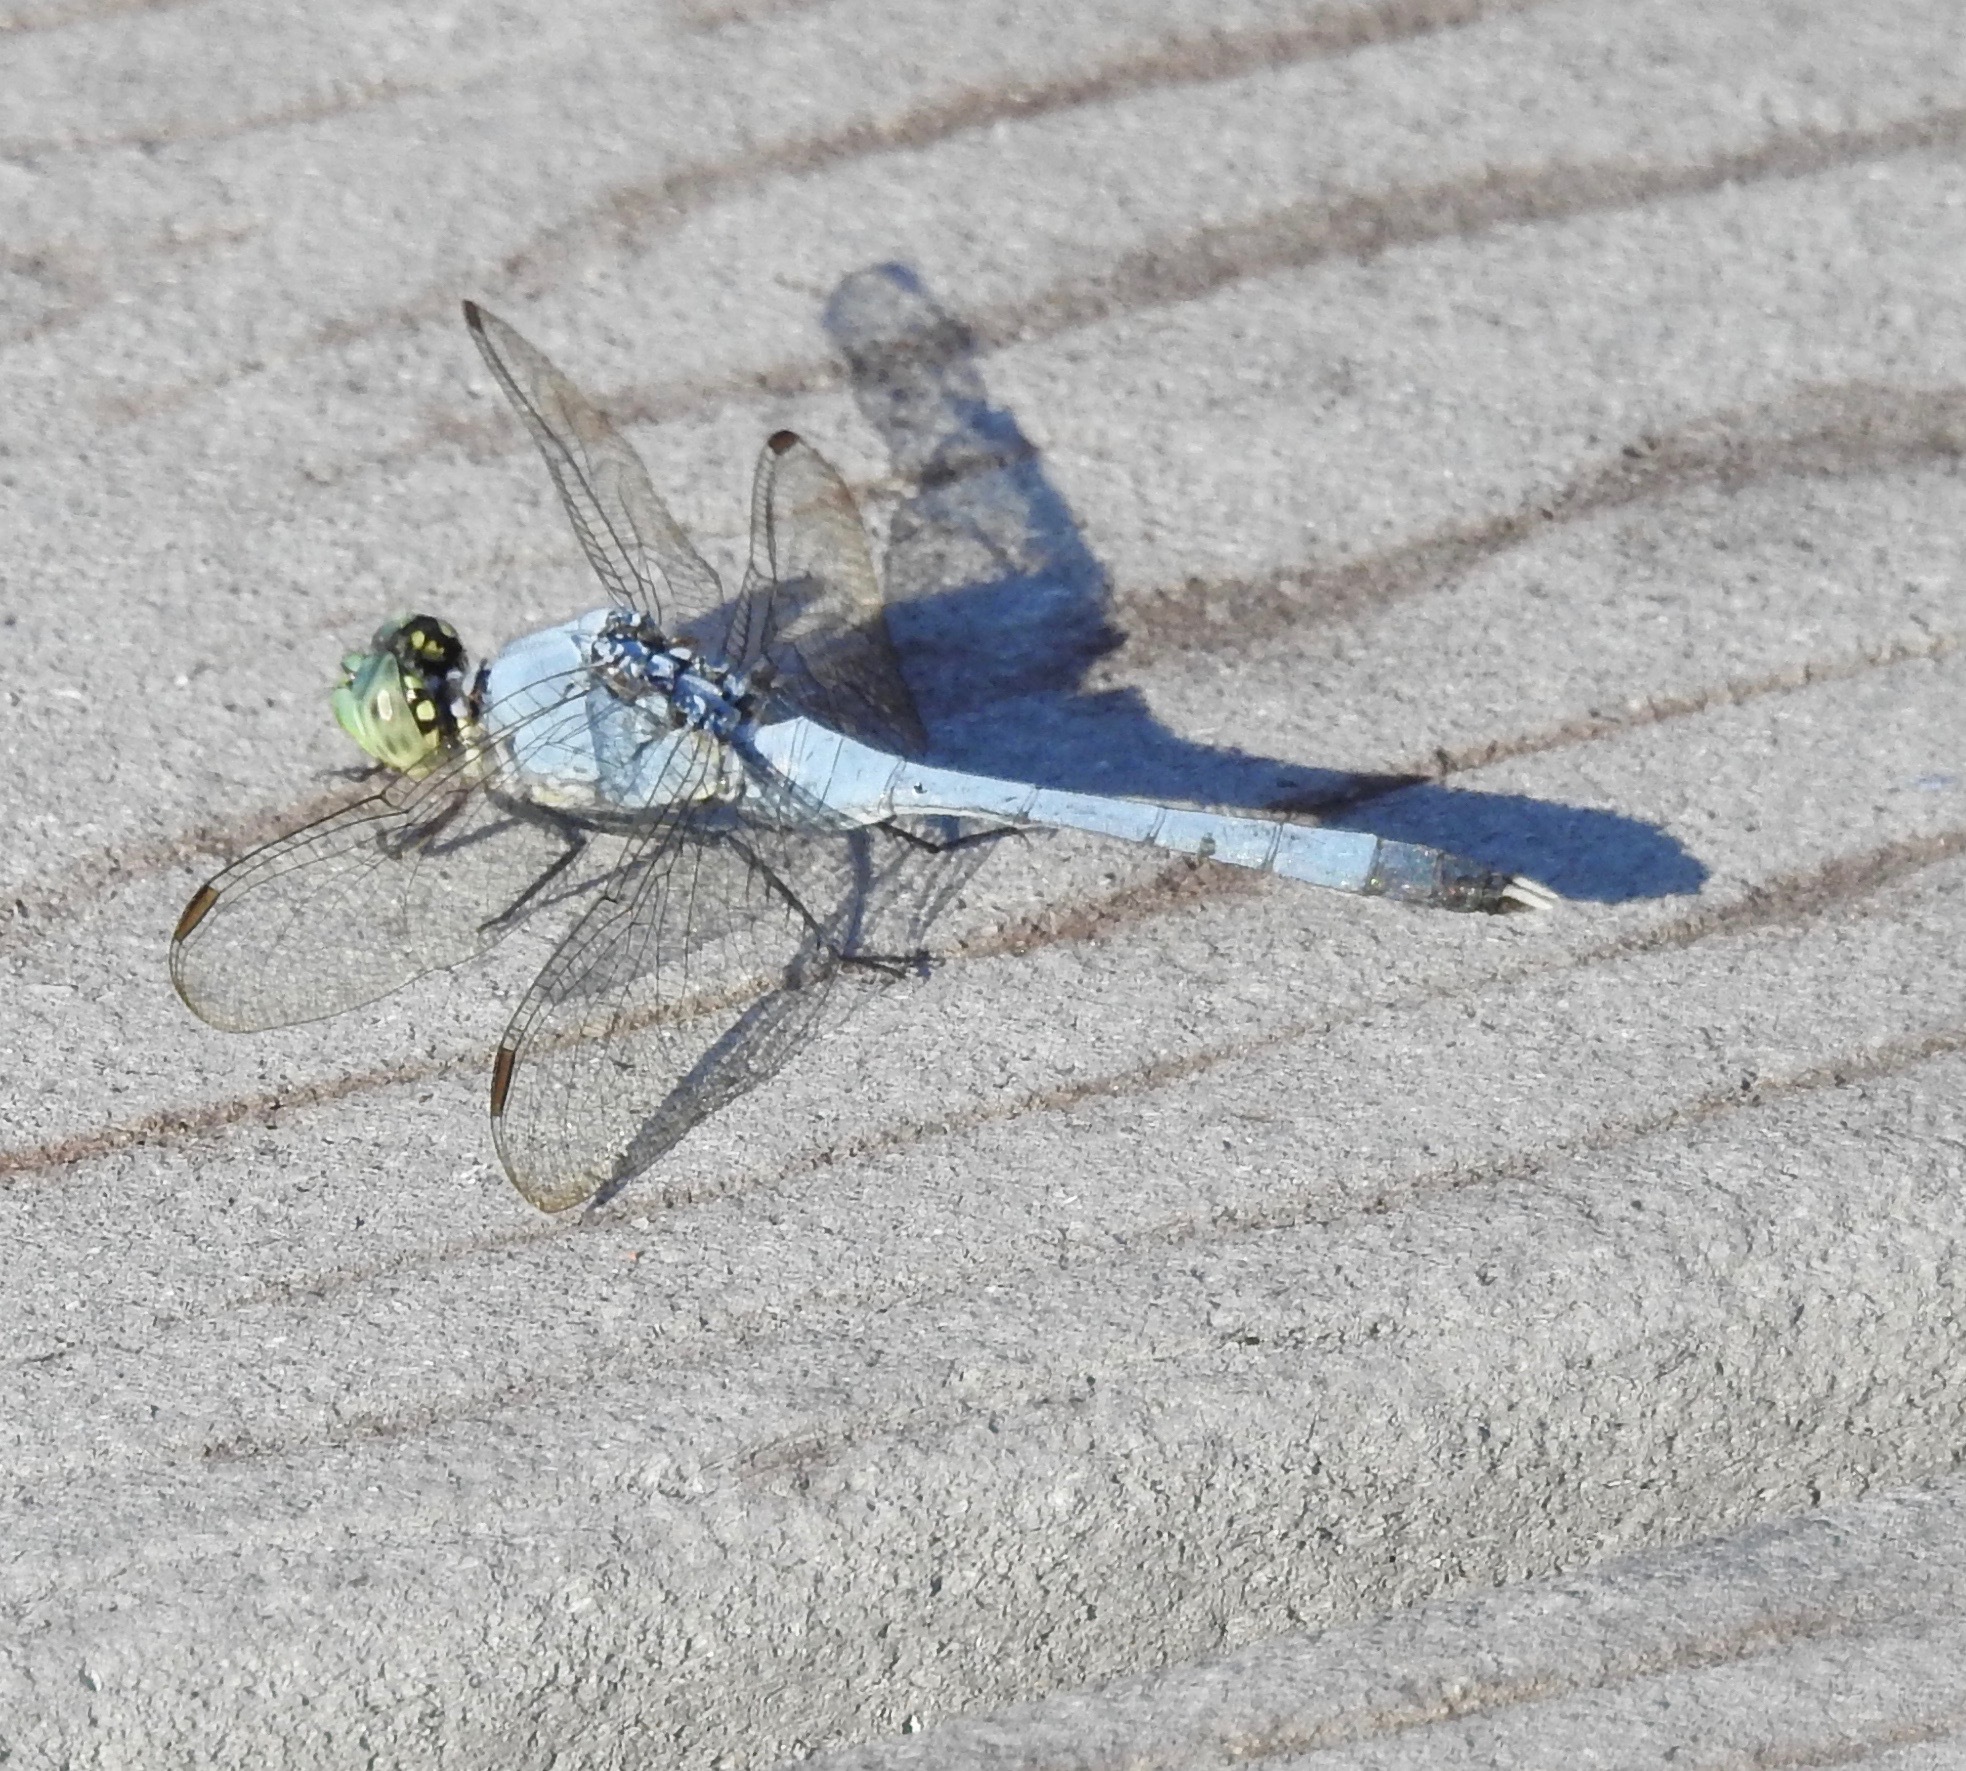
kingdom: Animalia
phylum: Arthropoda
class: Insecta
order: Odonata
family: Libellulidae
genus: Erythemis
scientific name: Erythemis simplicicollis
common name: Eastern pondhawk
